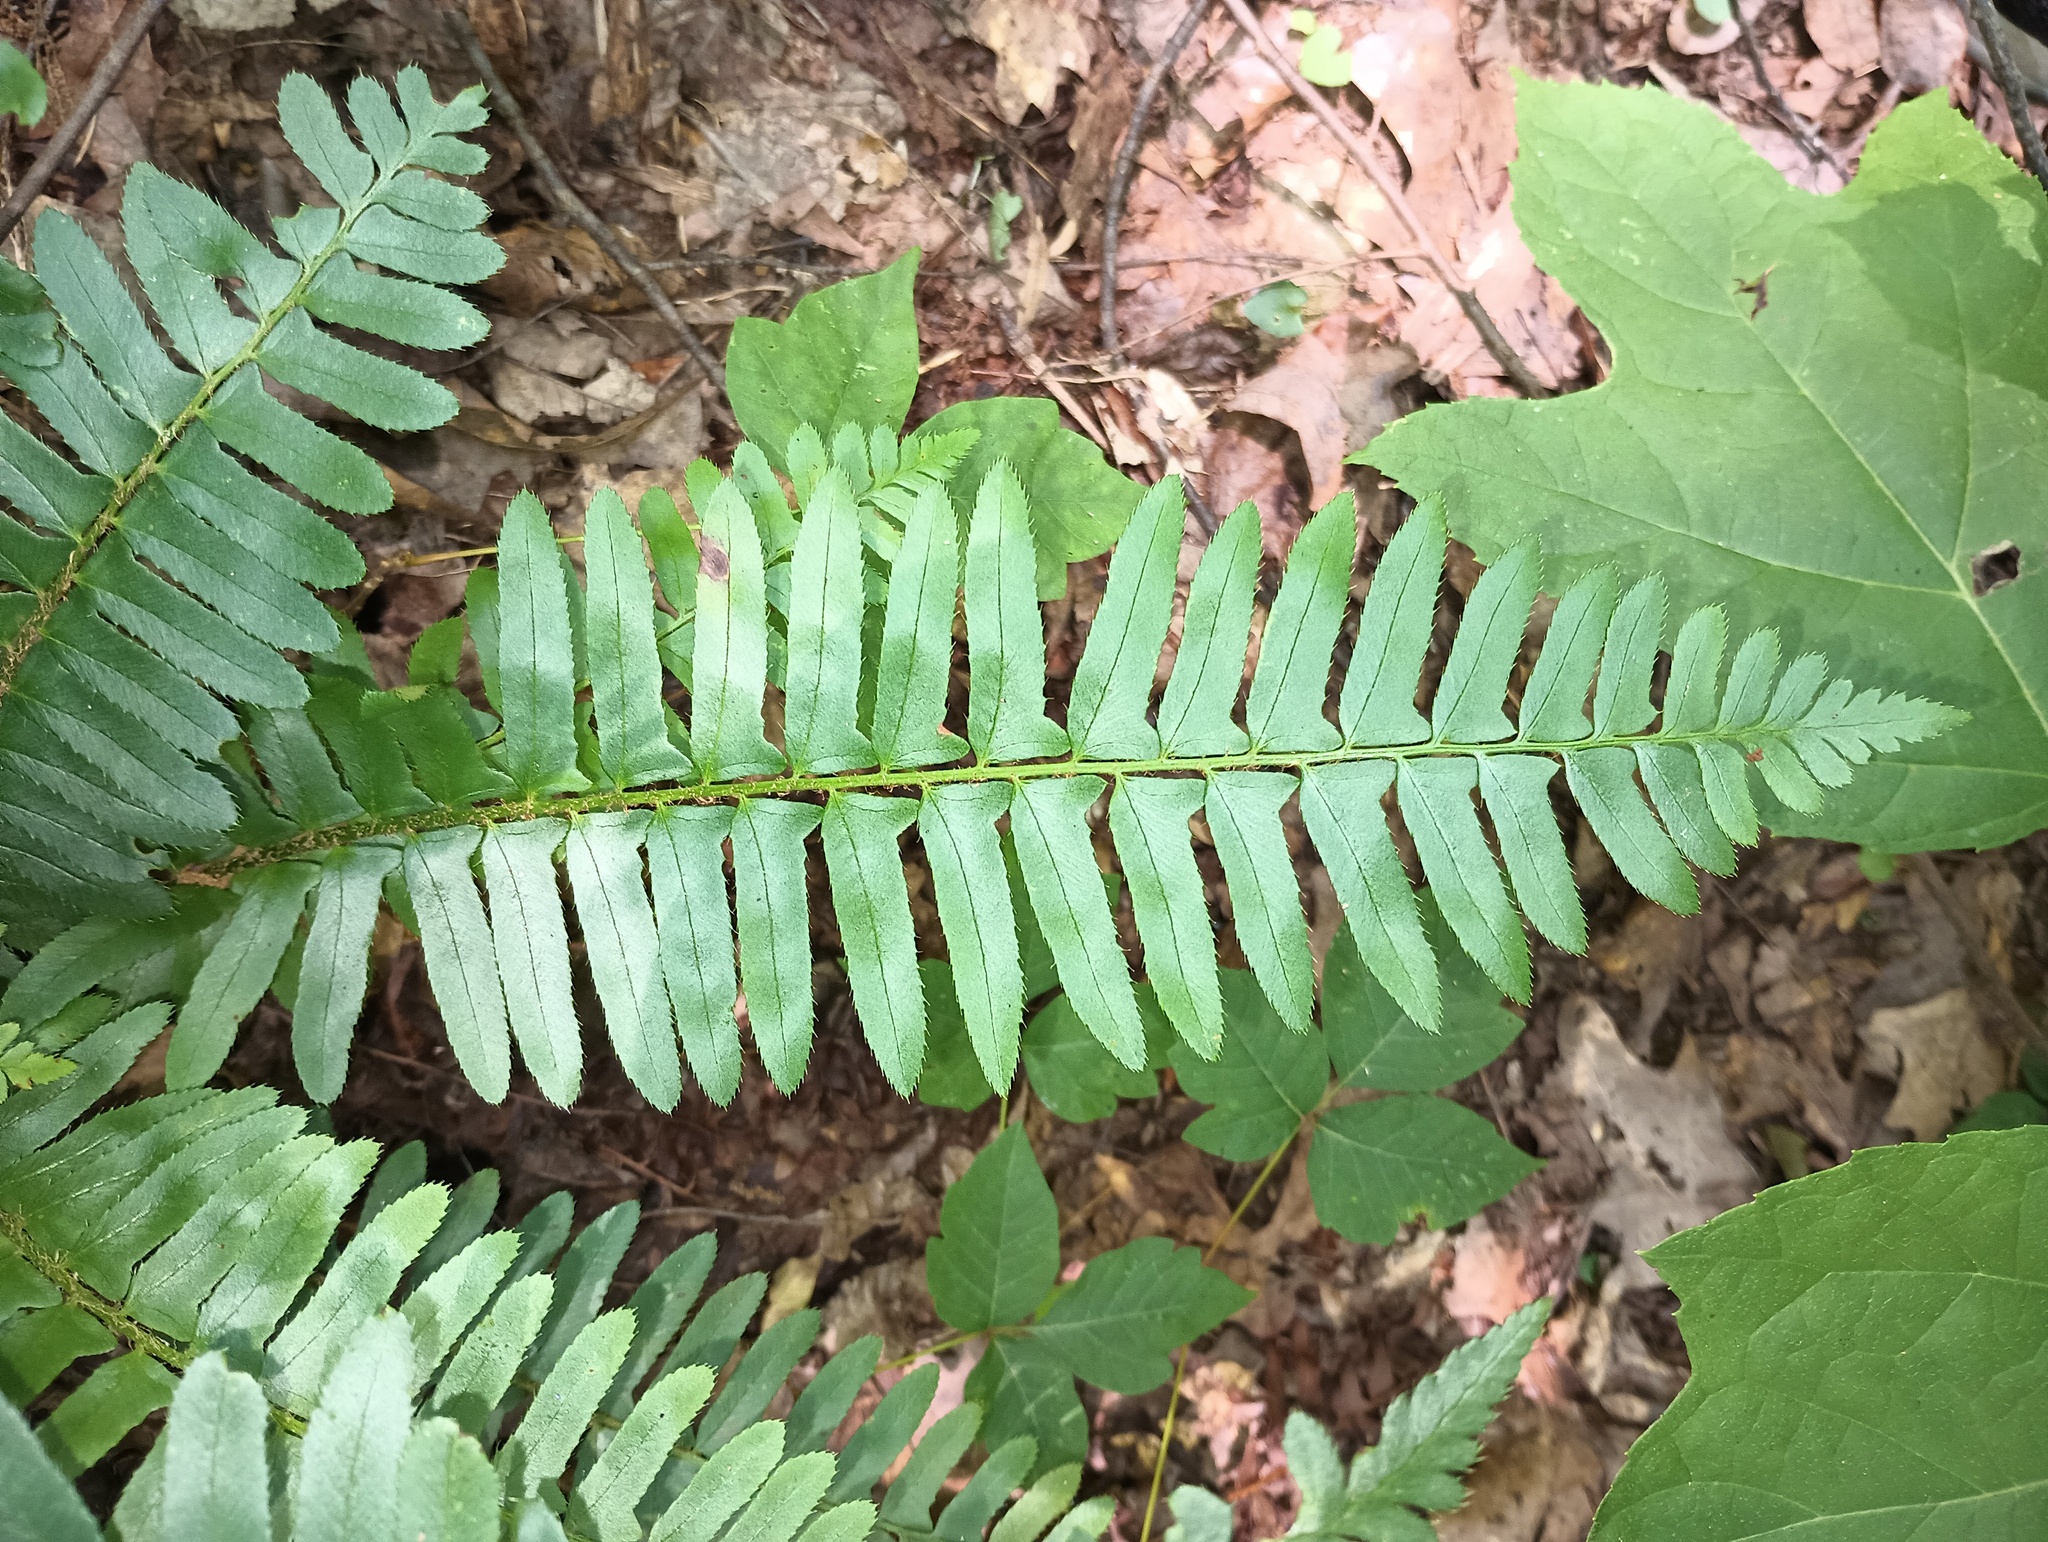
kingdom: Plantae
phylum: Tracheophyta
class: Polypodiopsida
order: Polypodiales
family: Dryopteridaceae
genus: Polystichum
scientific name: Polystichum acrostichoides
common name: Christmas fern
